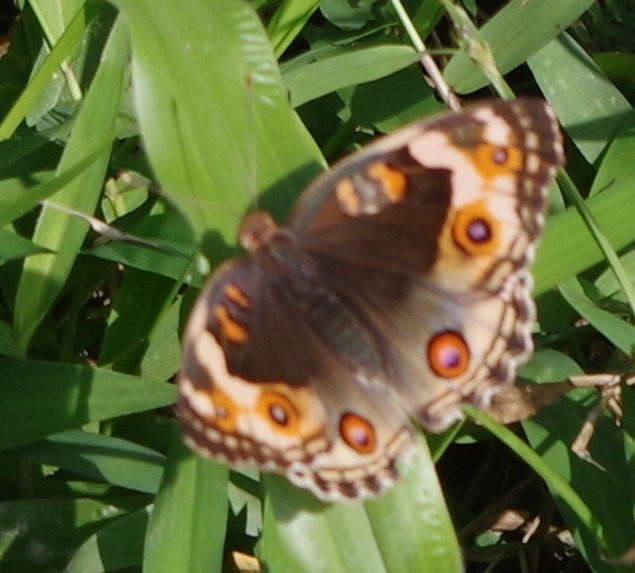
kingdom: Animalia
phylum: Arthropoda
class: Insecta
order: Lepidoptera
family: Nymphalidae
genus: Junonia
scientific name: Junonia orithya
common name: Blue pansy
